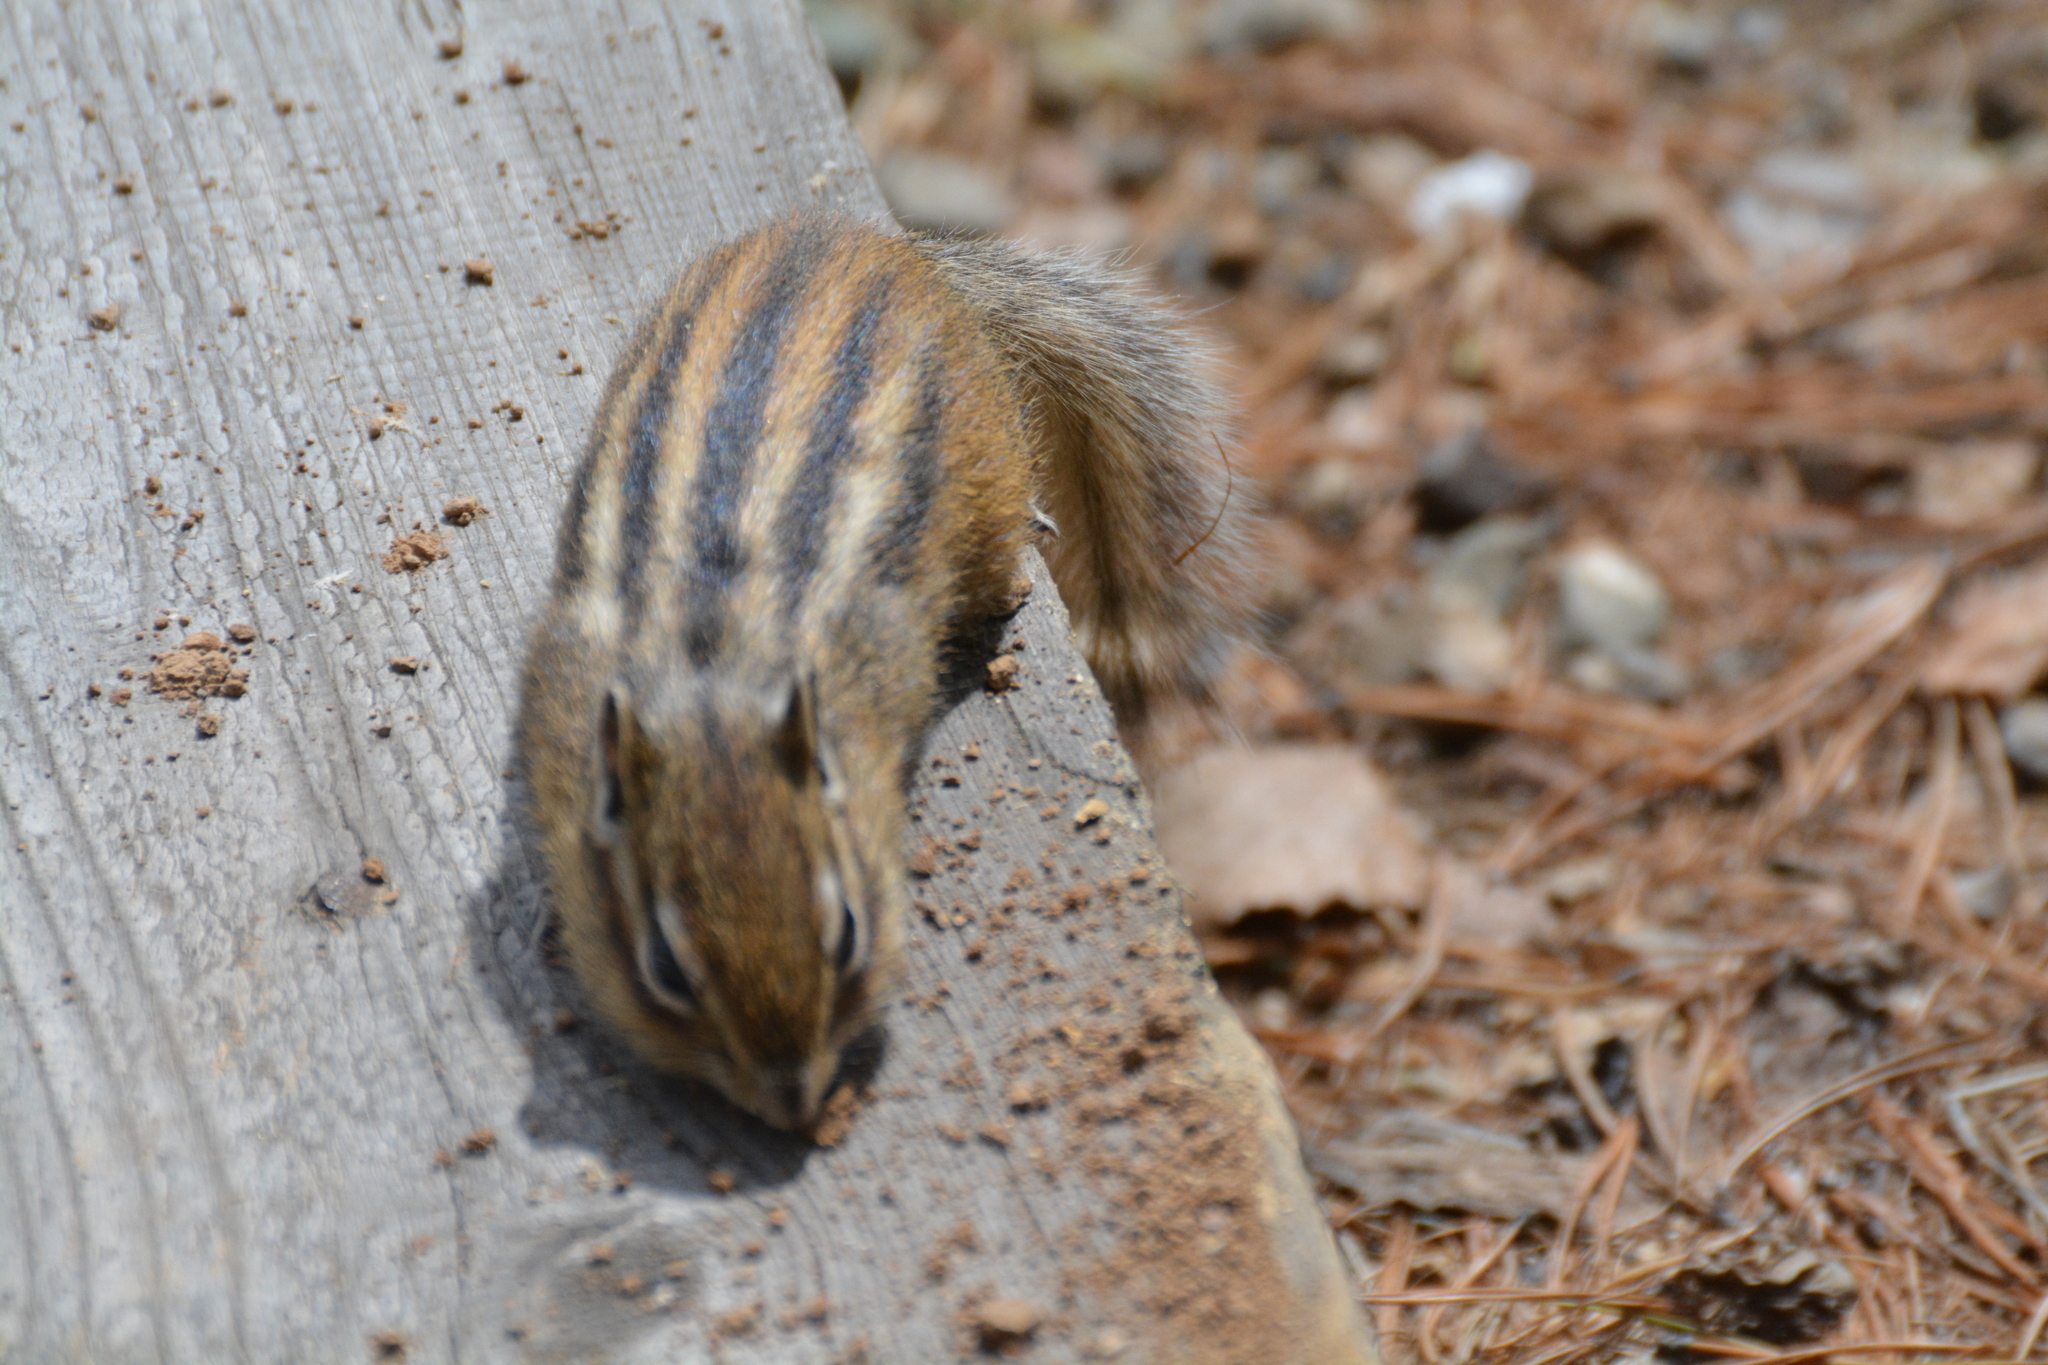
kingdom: Animalia
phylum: Chordata
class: Mammalia
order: Rodentia
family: Sciuridae
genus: Tamias
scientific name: Tamias sibiricus
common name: Siberian chipmunk
